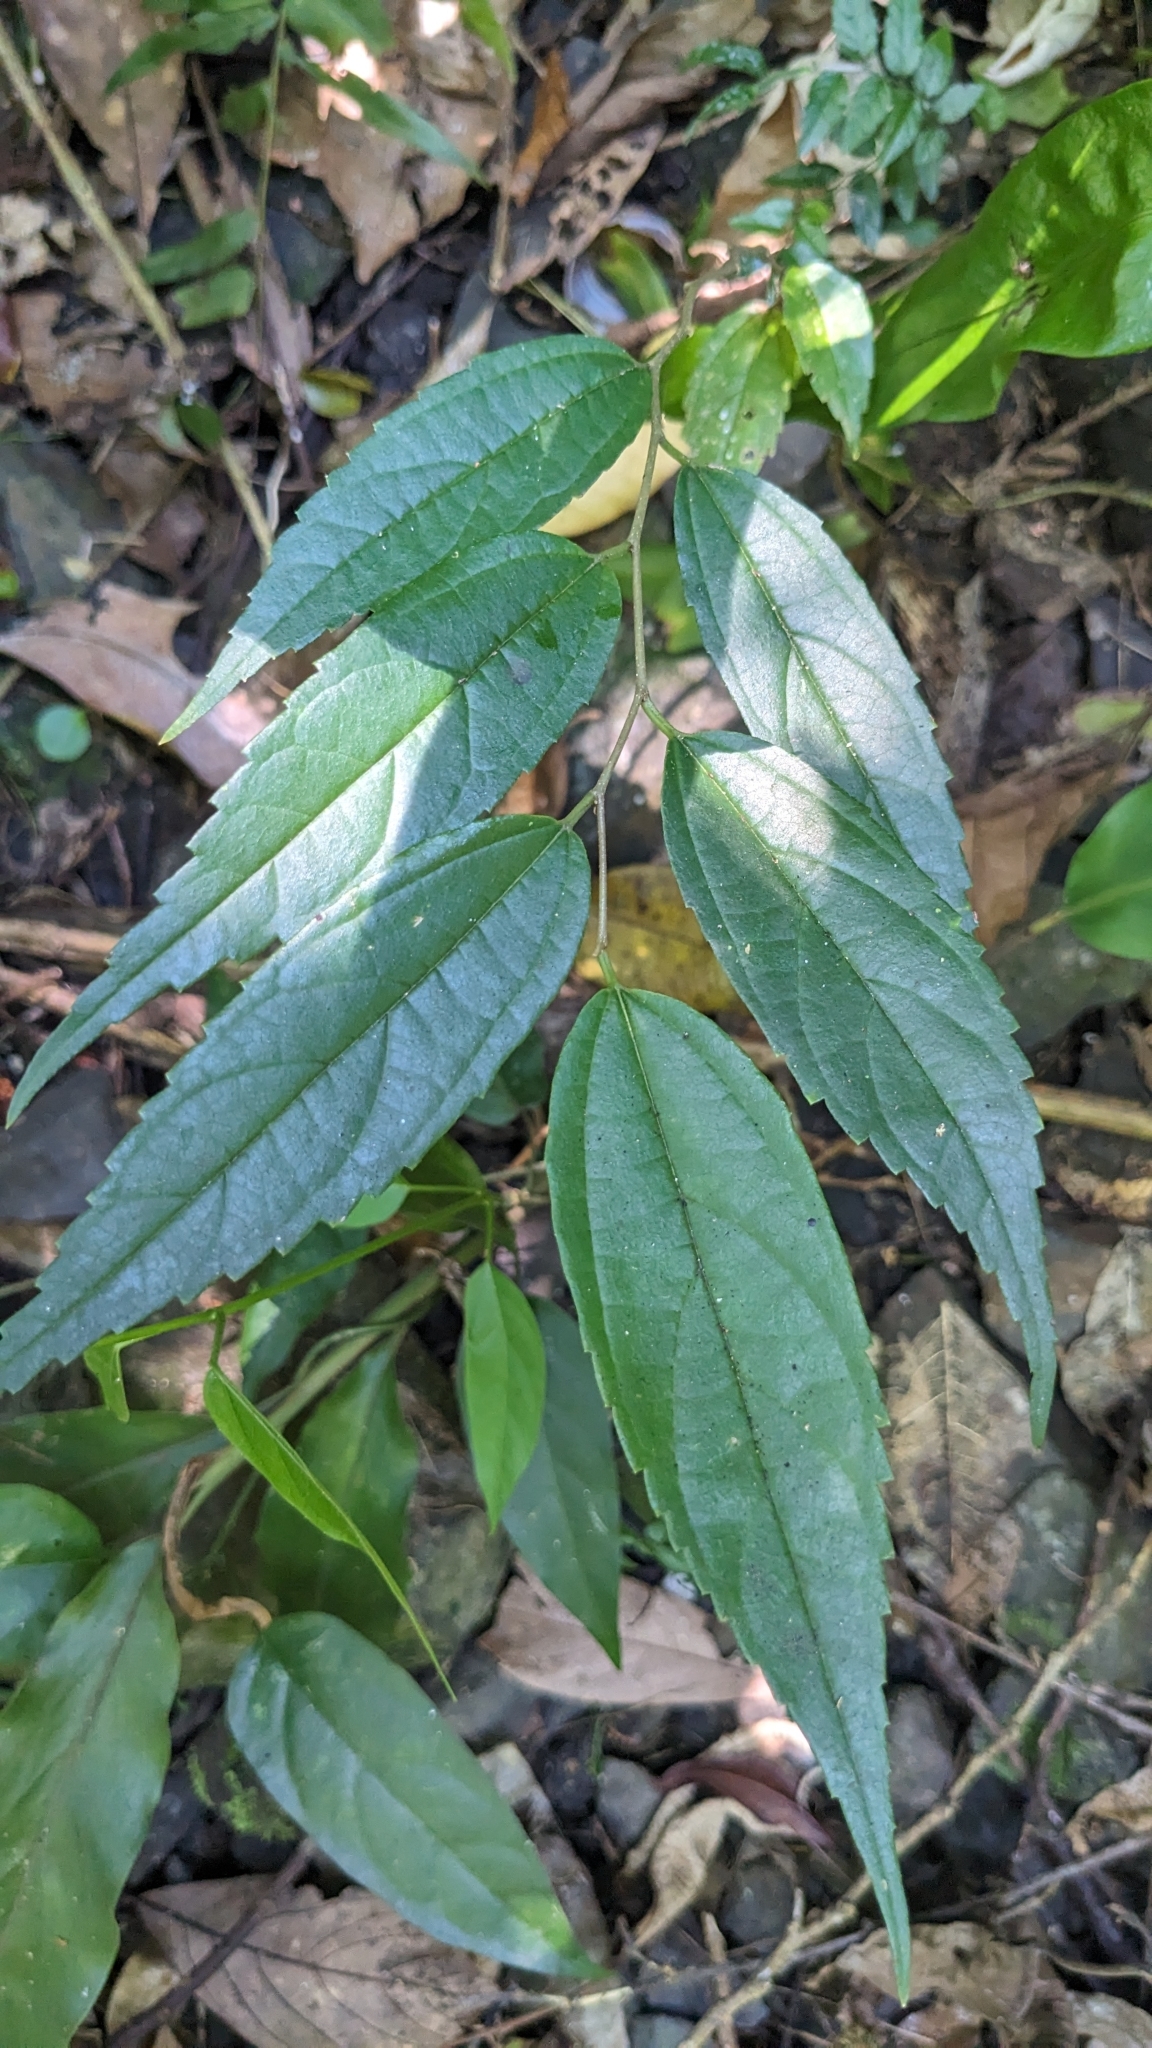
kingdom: Plantae
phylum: Tracheophyta
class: Magnoliopsida
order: Rosales
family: Cannabaceae
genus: Celtis
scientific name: Celtis tetrandra
